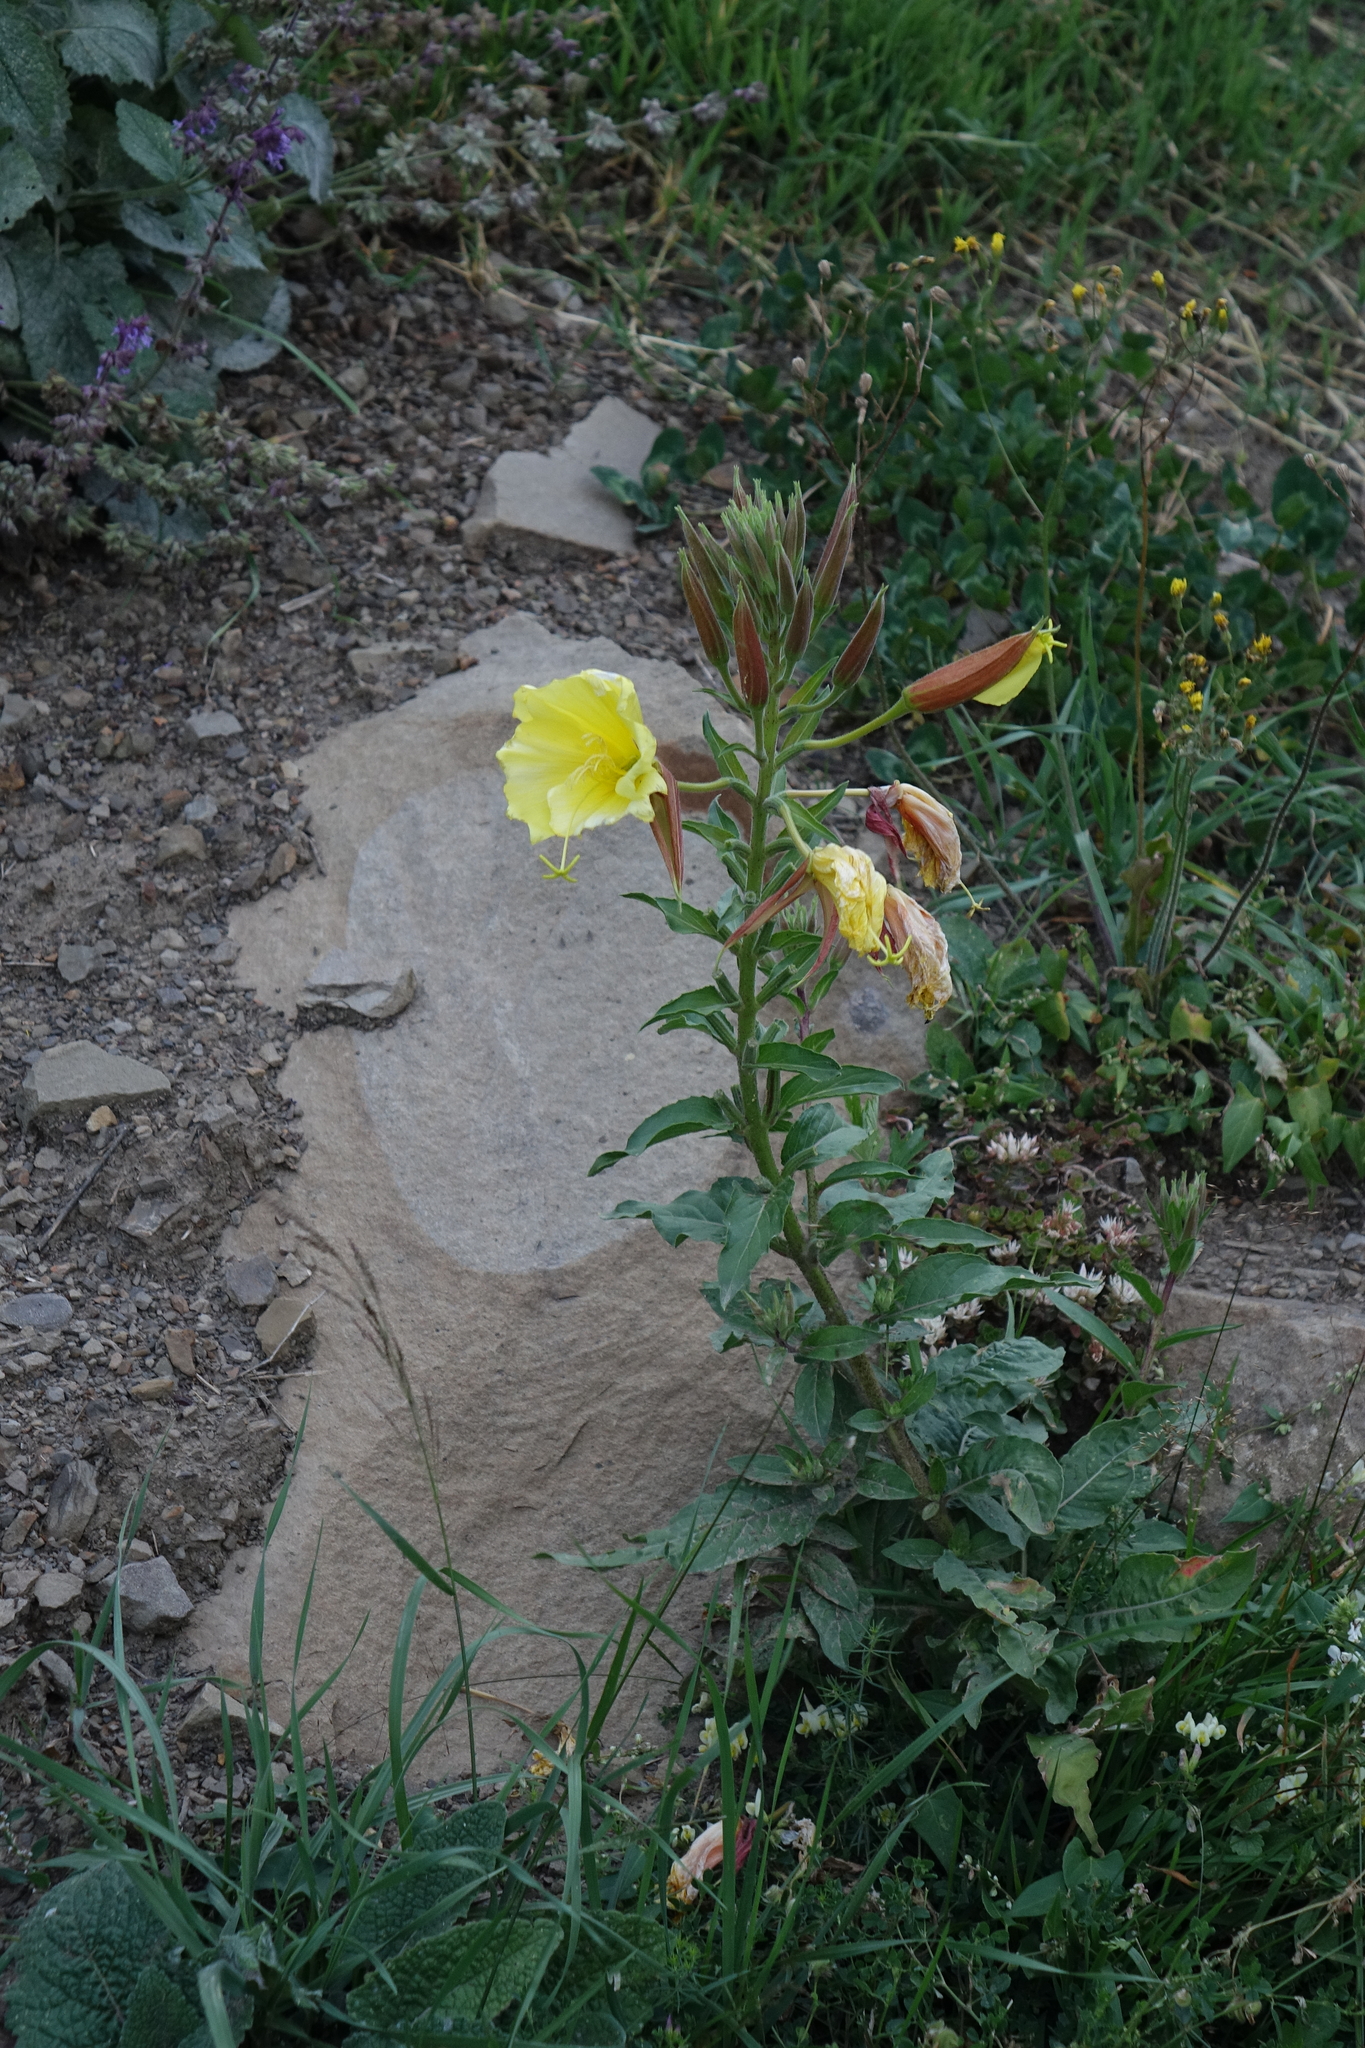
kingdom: Plantae
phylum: Tracheophyta
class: Magnoliopsida
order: Myrtales
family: Onagraceae
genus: Oenothera
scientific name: Oenothera glazioviana
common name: Large-flowered evening-primrose
